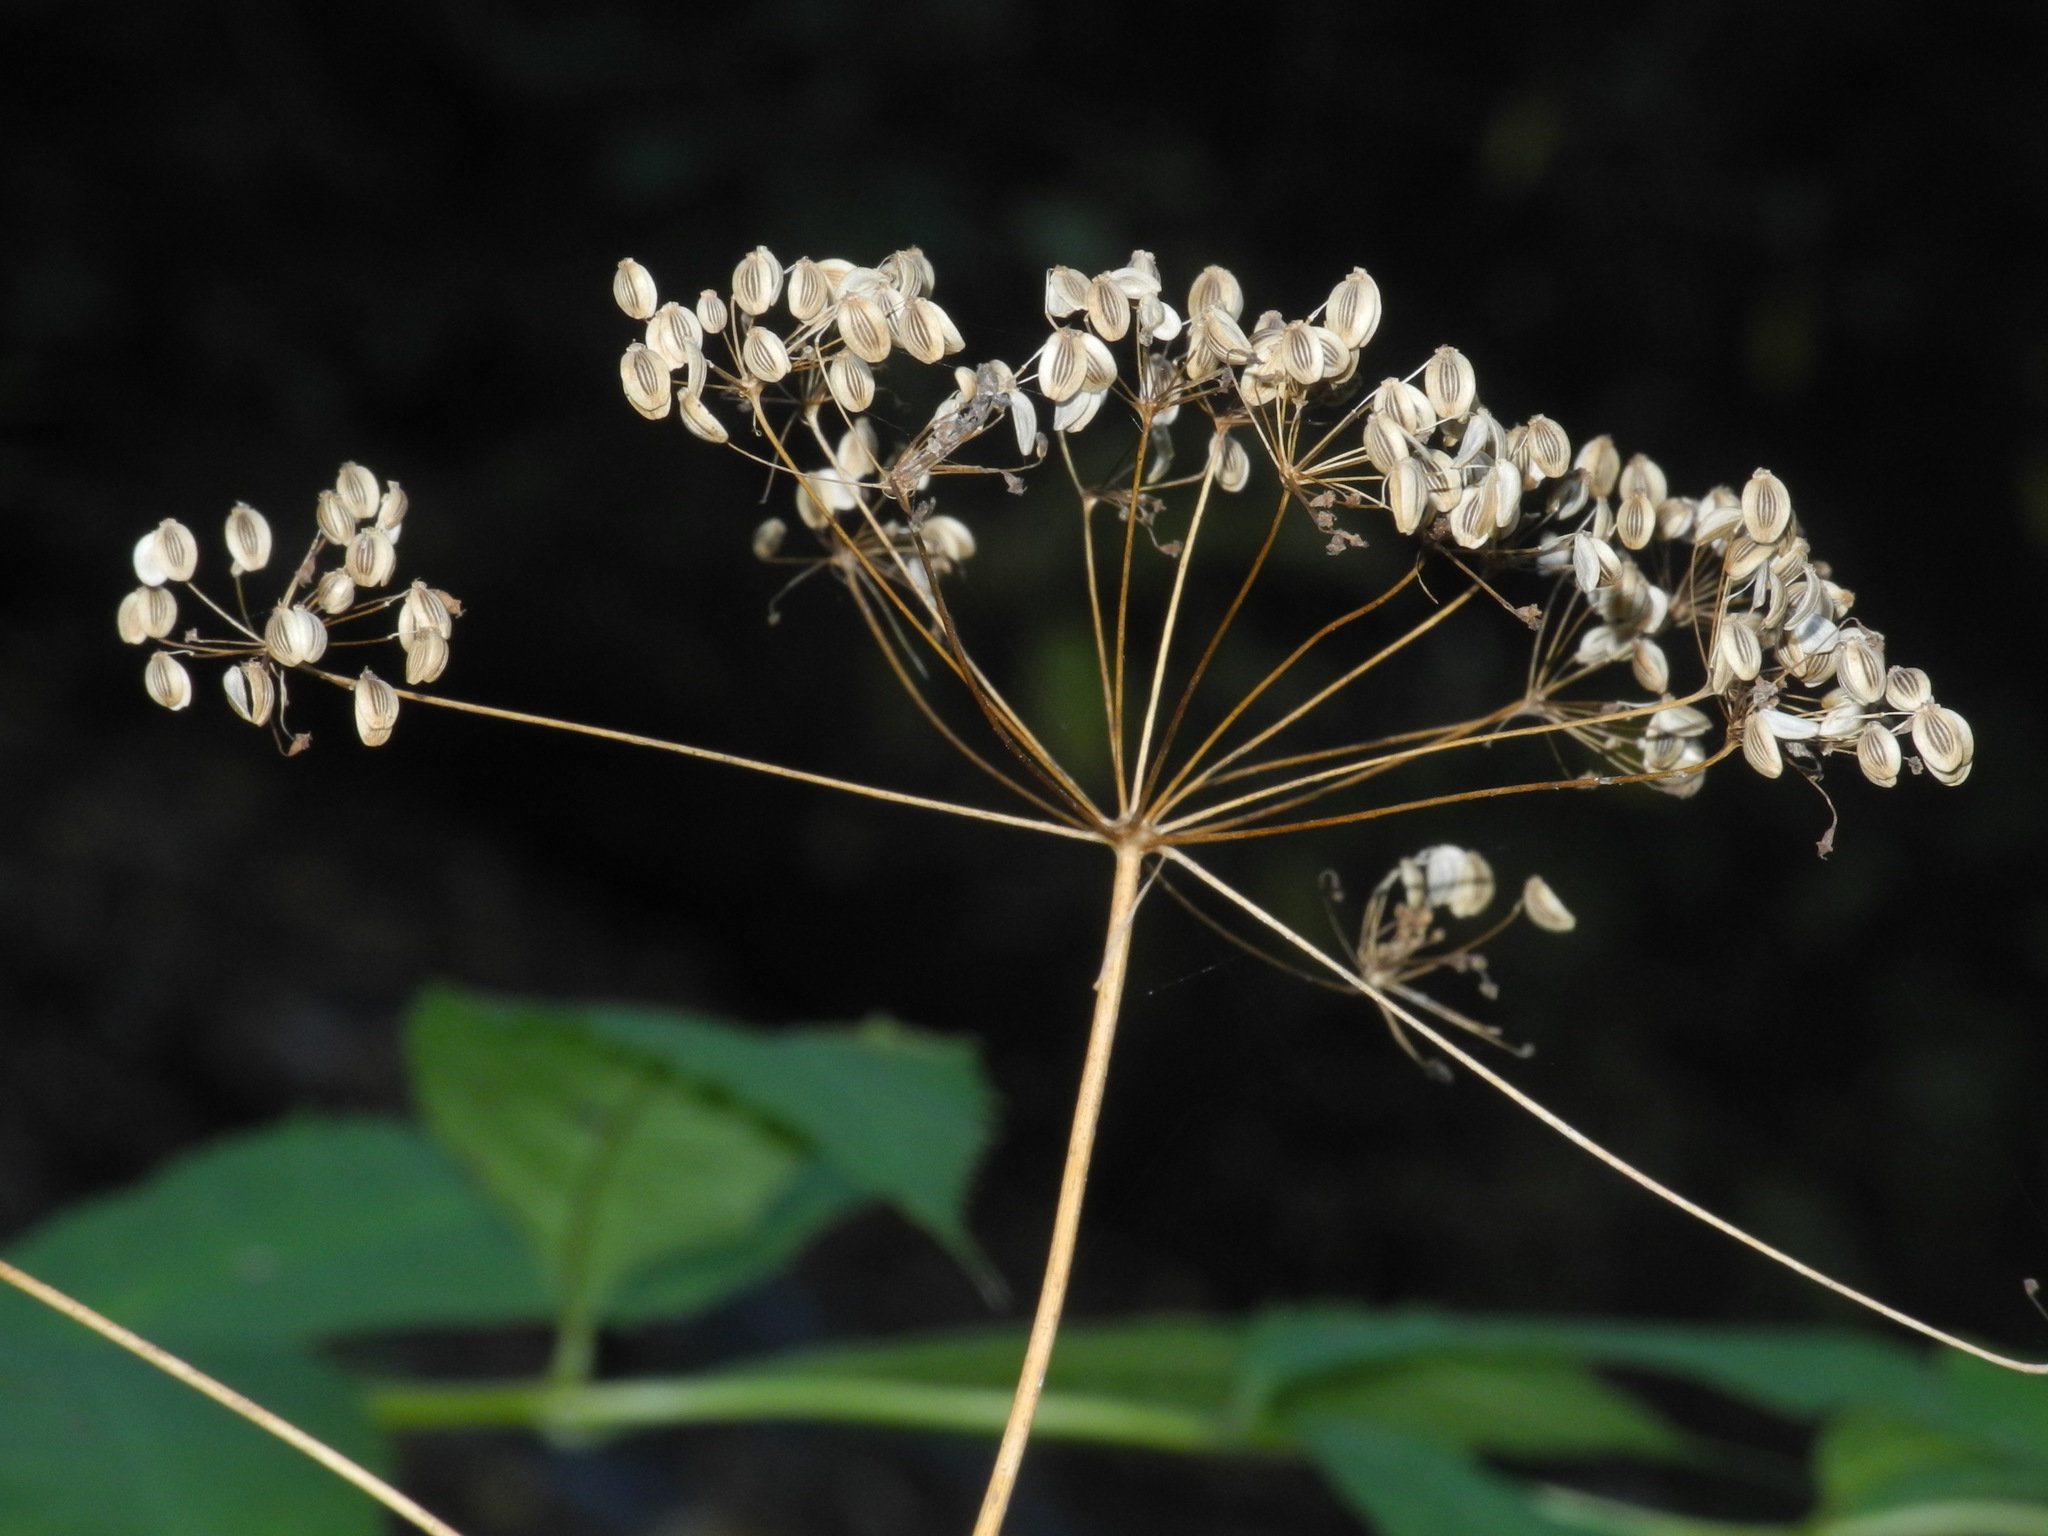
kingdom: Plantae
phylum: Tracheophyta
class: Magnoliopsida
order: Apiales
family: Apiaceae
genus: Oxypolis
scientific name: Oxypolis rigidior
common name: Cowbane
